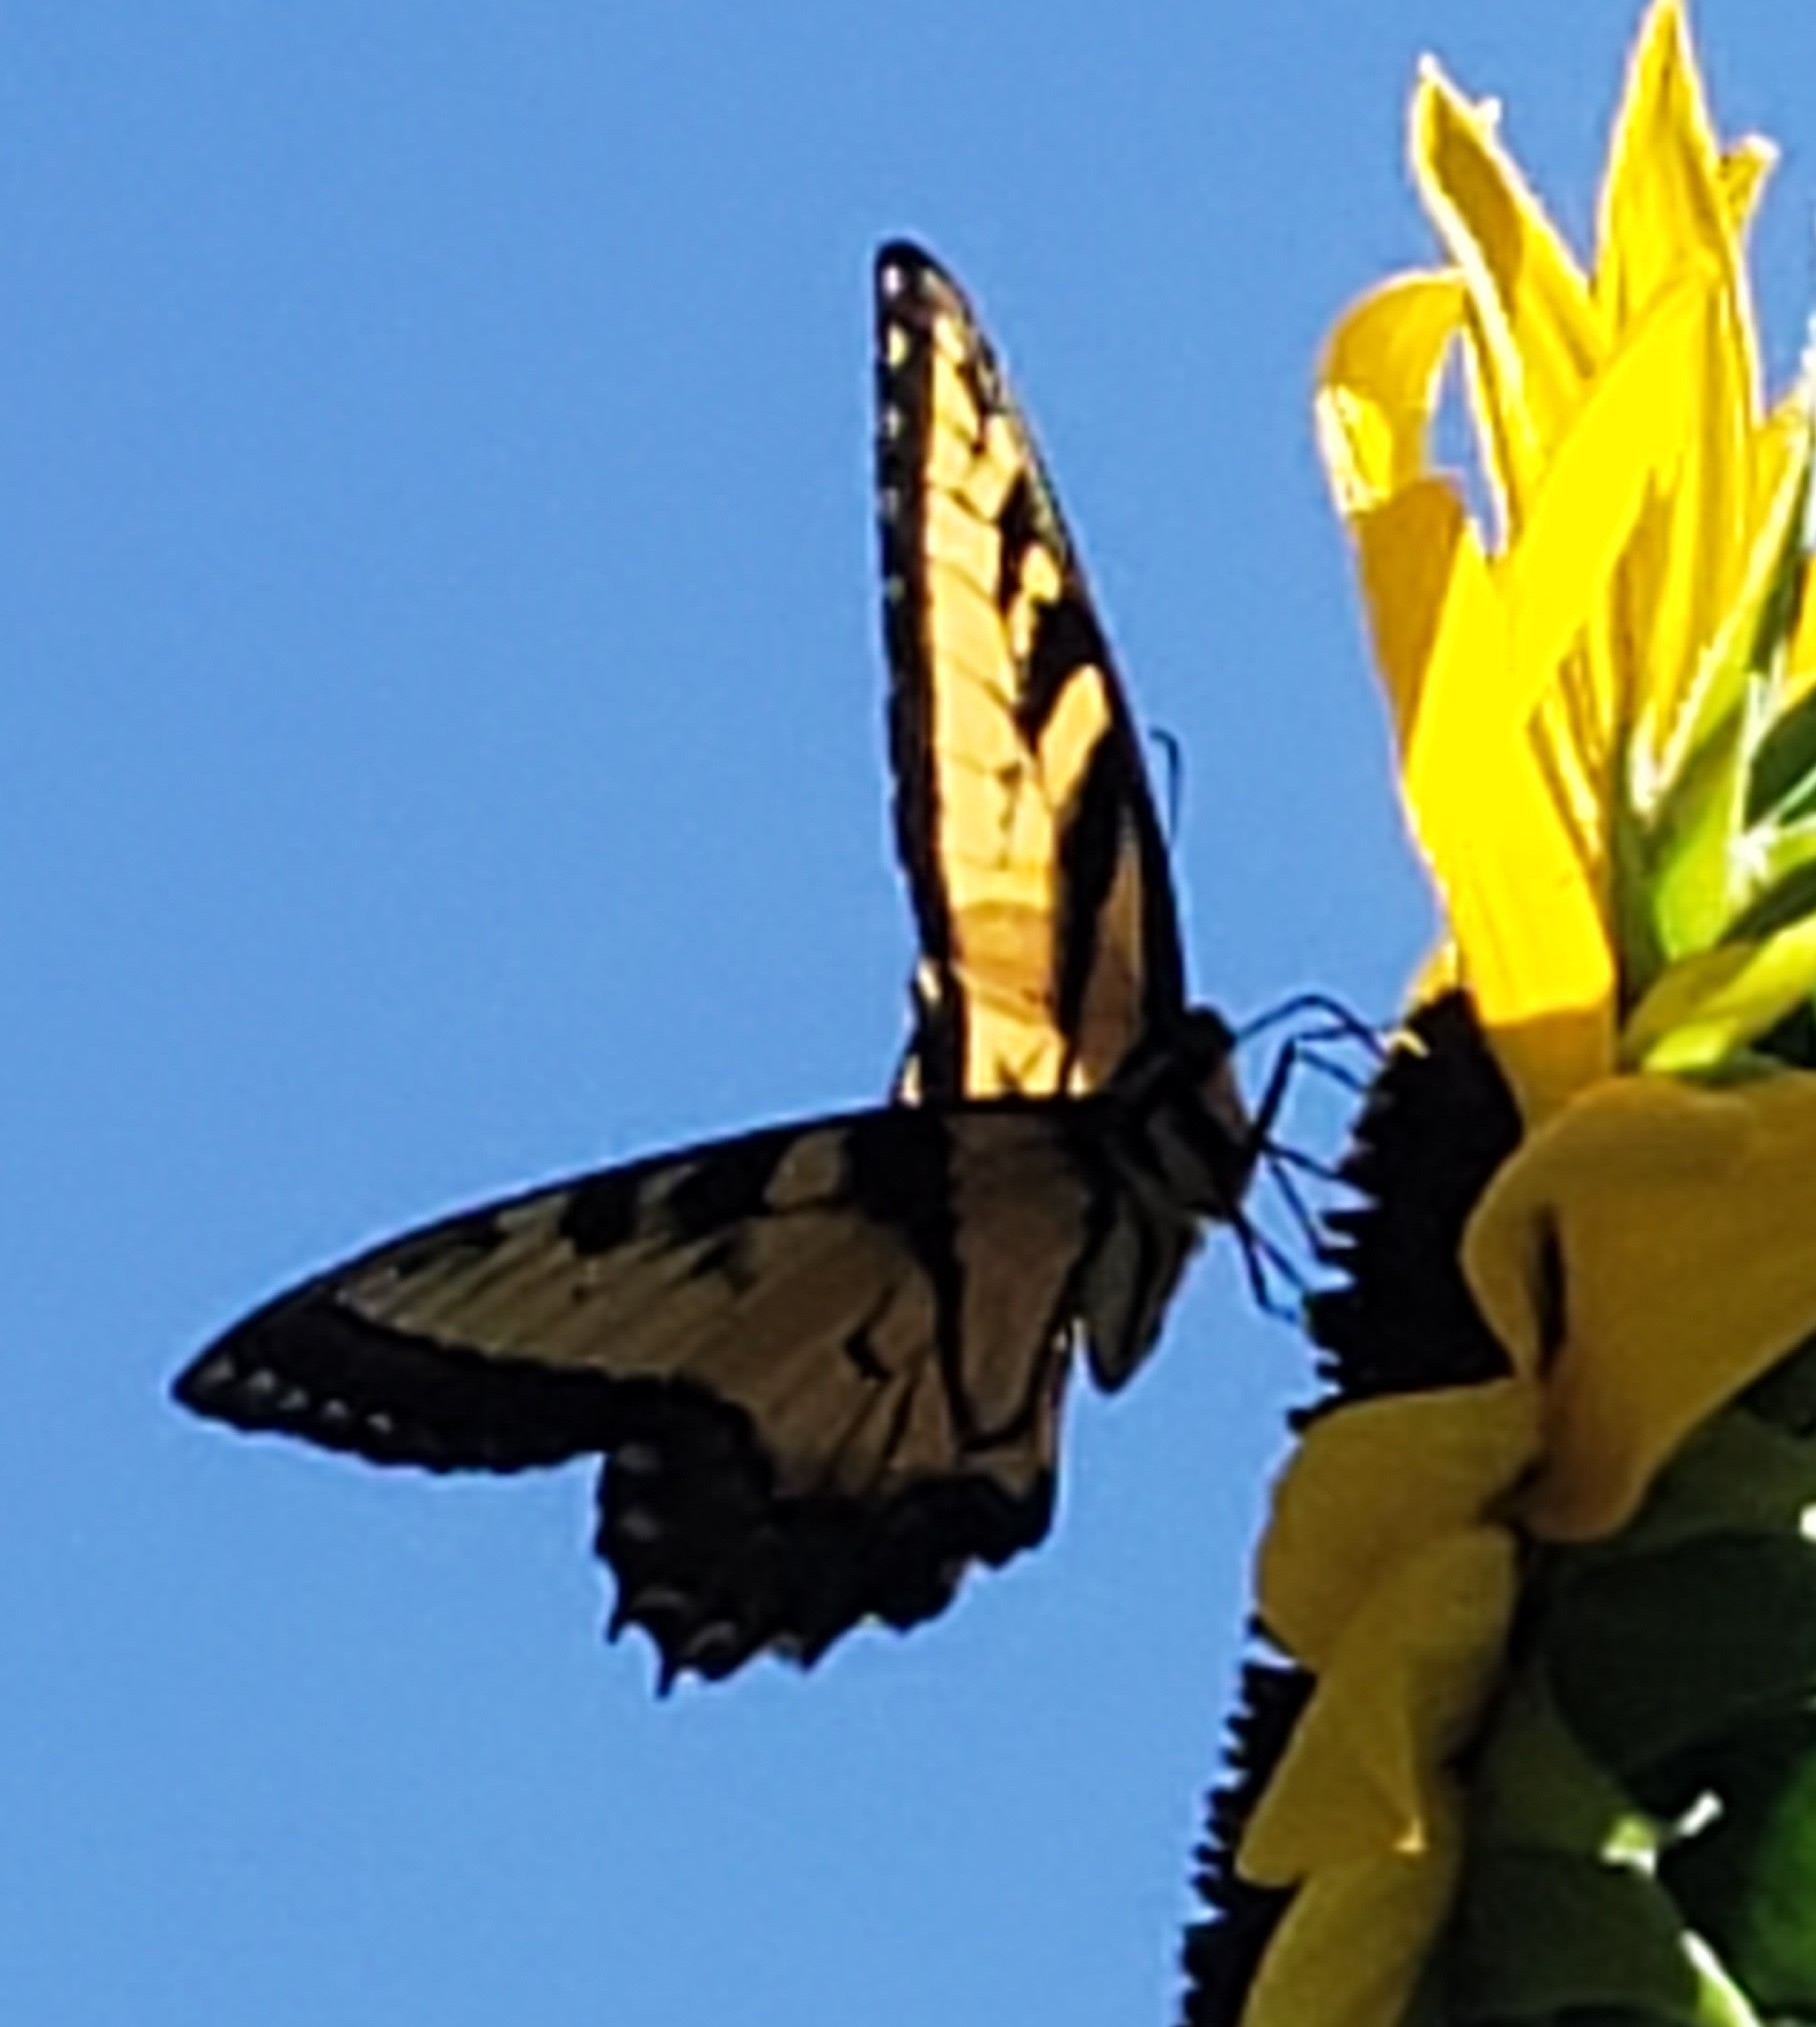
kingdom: Animalia
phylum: Arthropoda
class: Insecta
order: Lepidoptera
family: Papilionidae
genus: Papilio
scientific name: Papilio glaucus
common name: Tiger swallowtail
